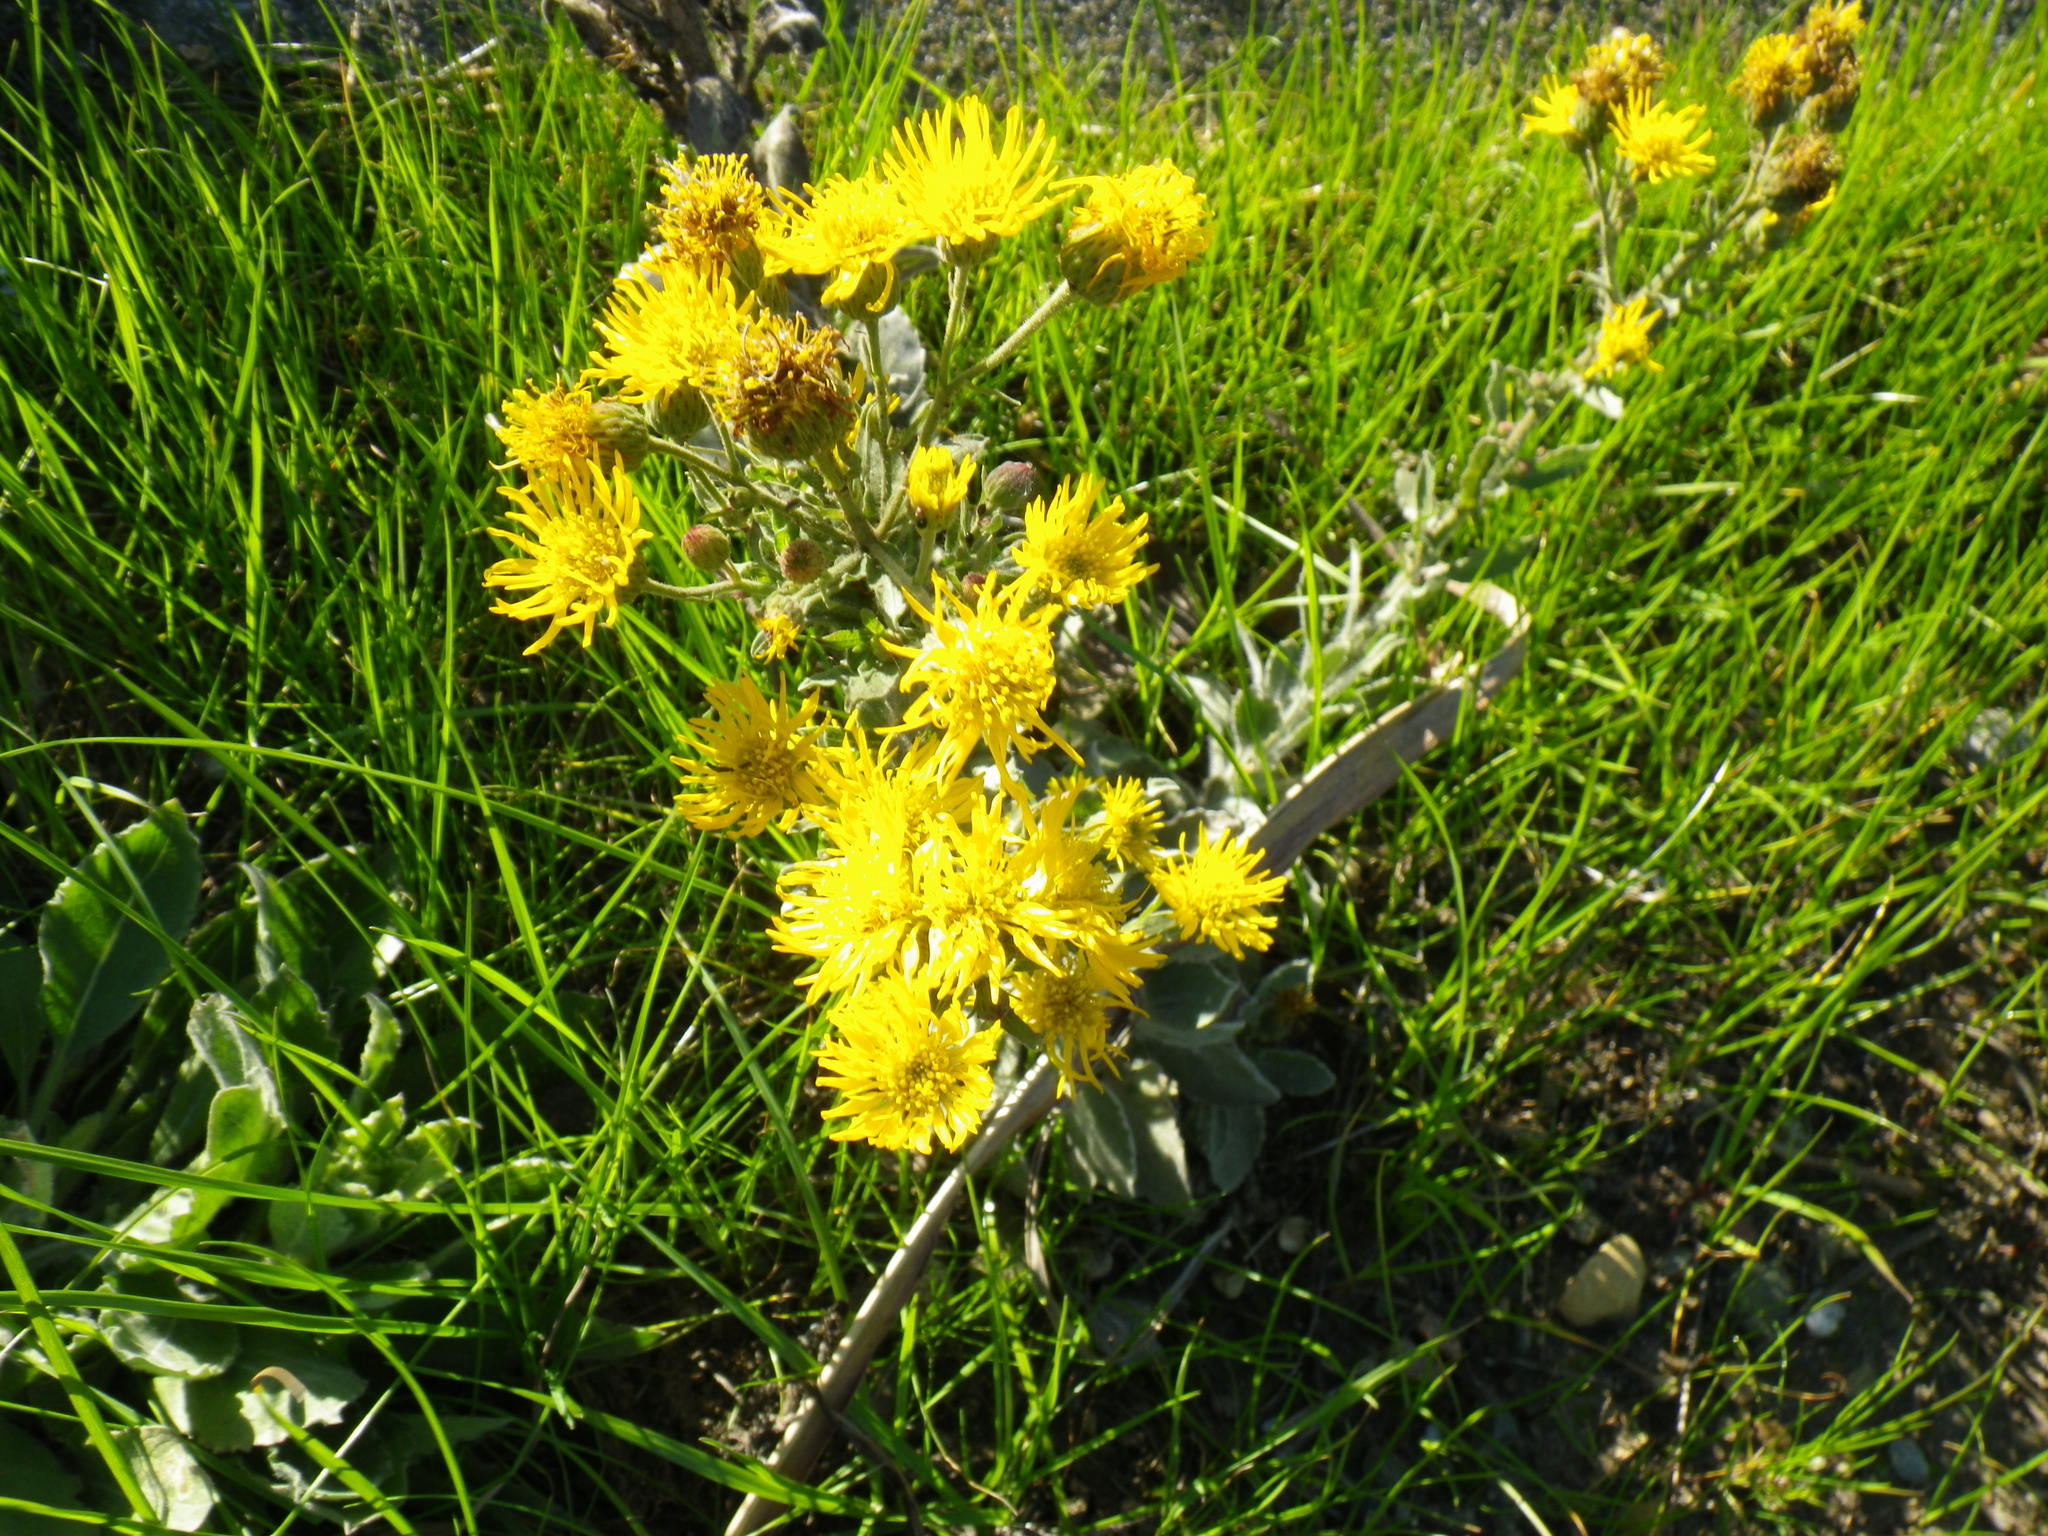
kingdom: Plantae
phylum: Tracheophyta
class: Magnoliopsida
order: Asterales
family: Asteraceae
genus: Heterotheca
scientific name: Heterotheca grandiflora
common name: Telegraphweed
